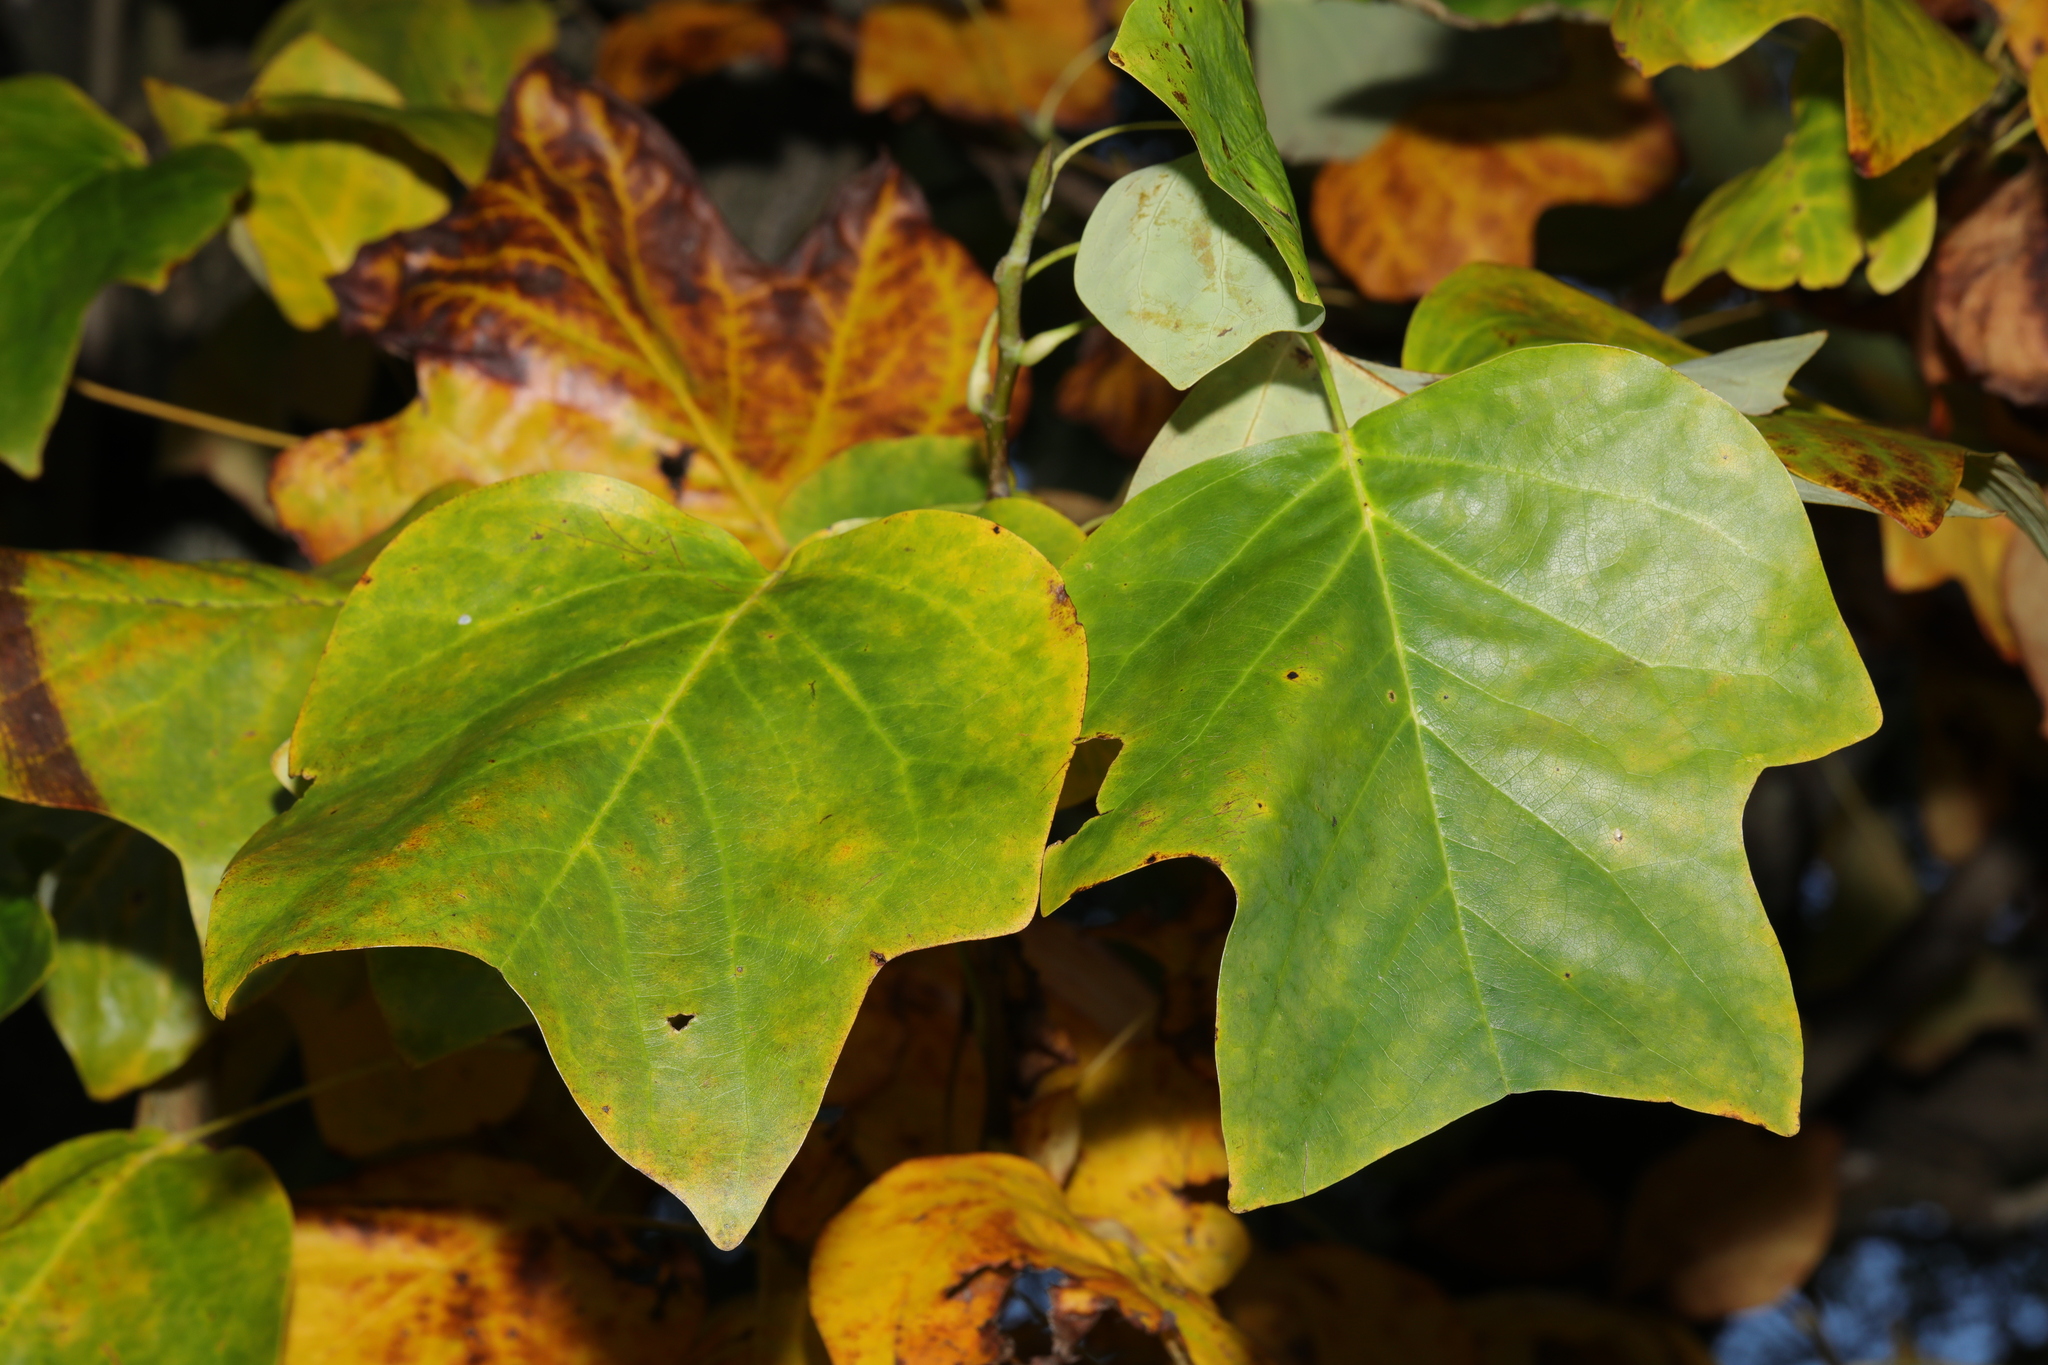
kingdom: Plantae
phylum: Tracheophyta
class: Magnoliopsida
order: Magnoliales
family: Magnoliaceae
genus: Liriodendron
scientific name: Liriodendron tulipifera
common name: Tulip tree
